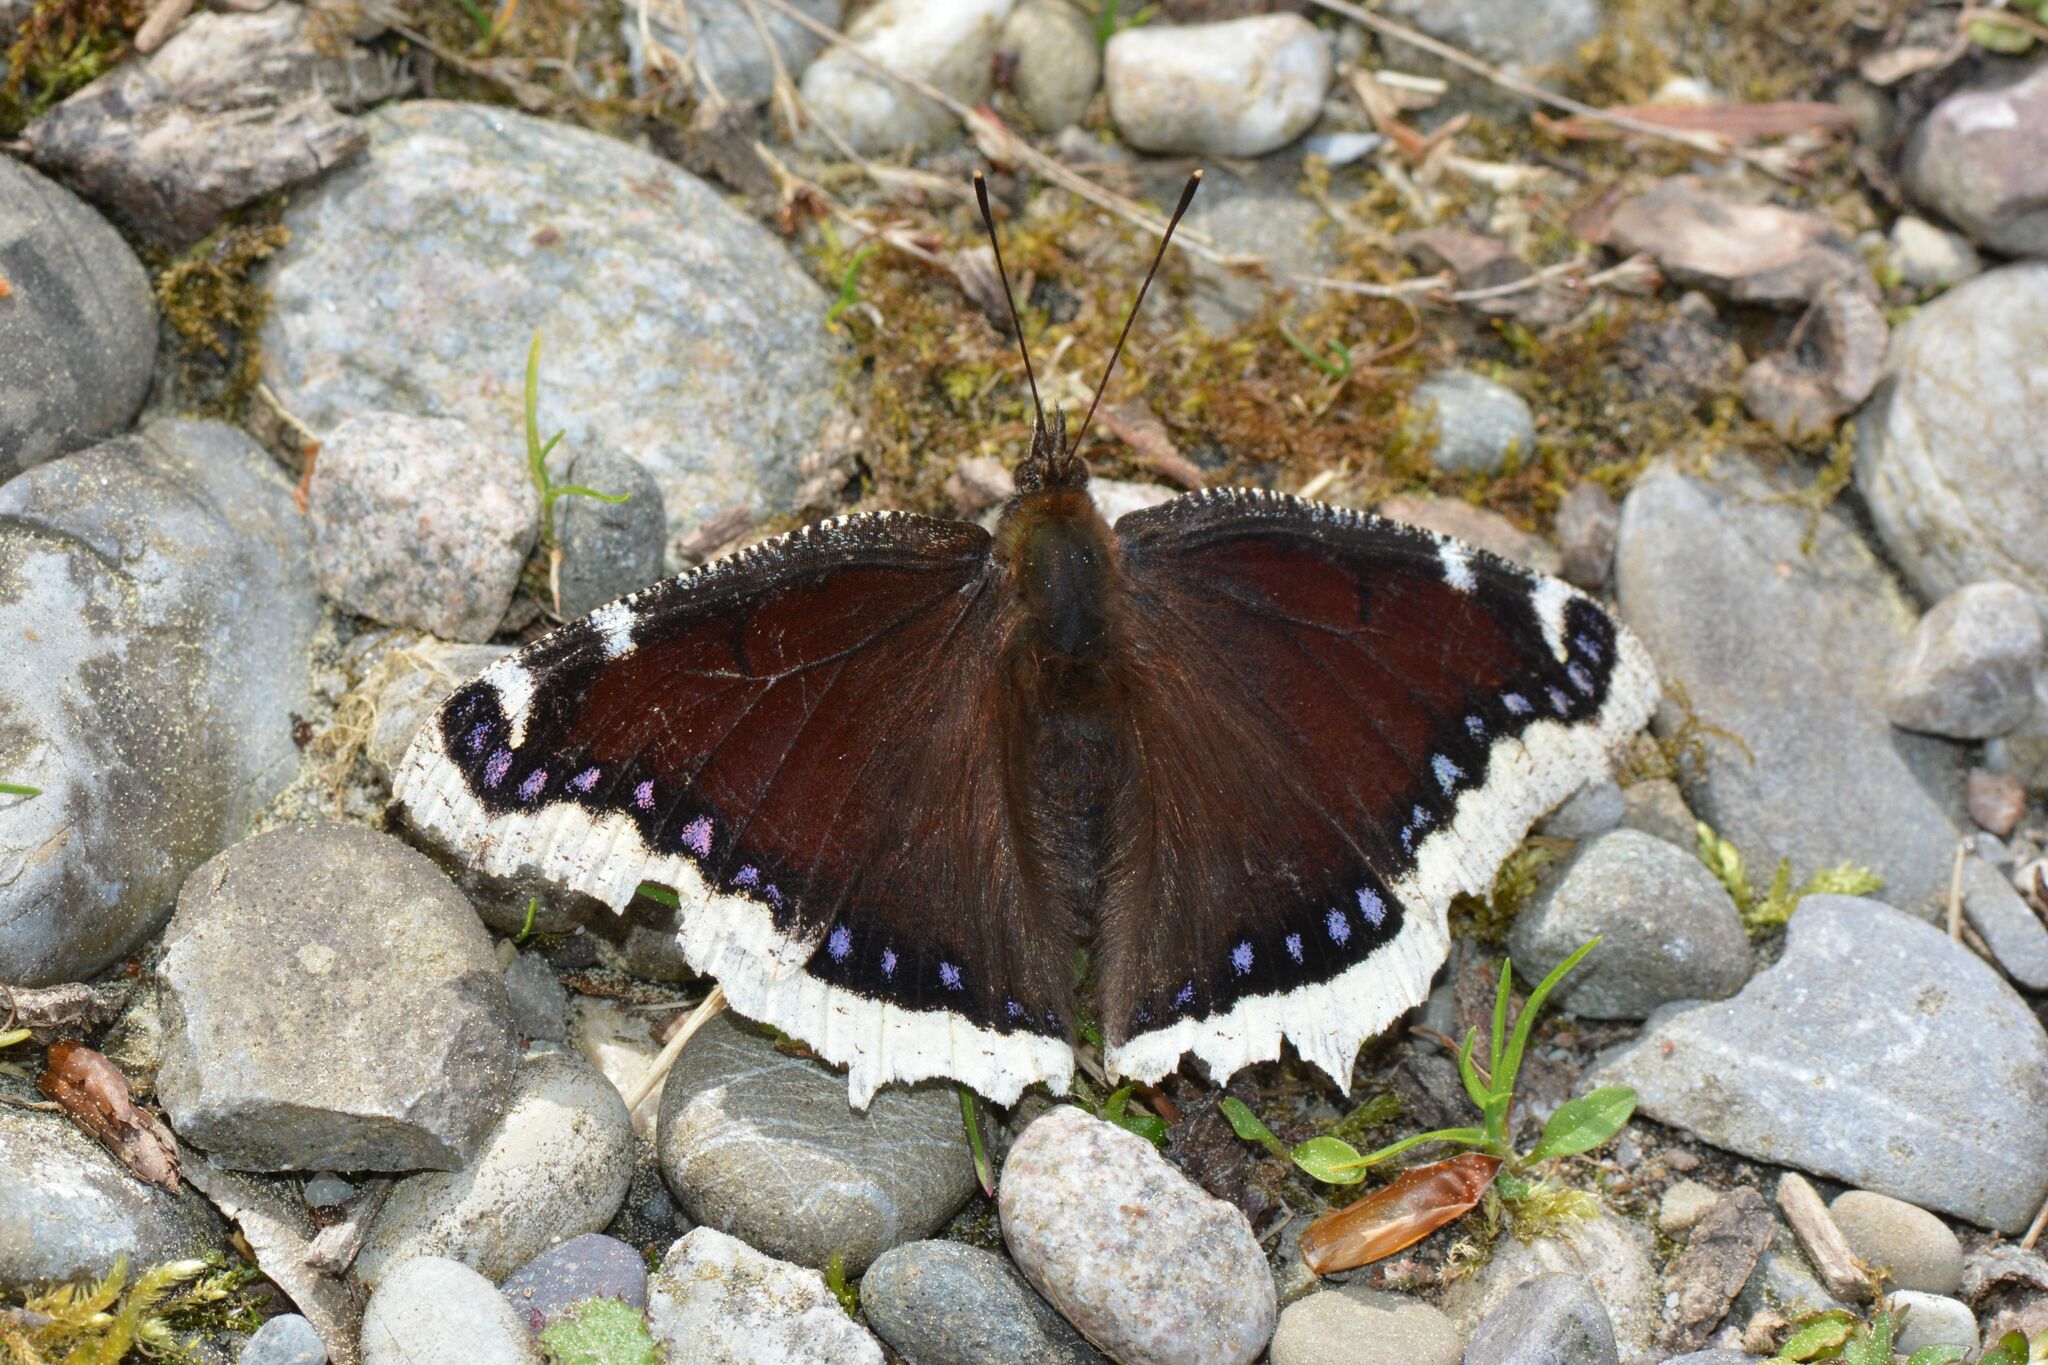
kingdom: Animalia
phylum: Arthropoda
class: Insecta
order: Lepidoptera
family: Nymphalidae
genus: Nymphalis
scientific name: Nymphalis antiopa
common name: Camberwell beauty
